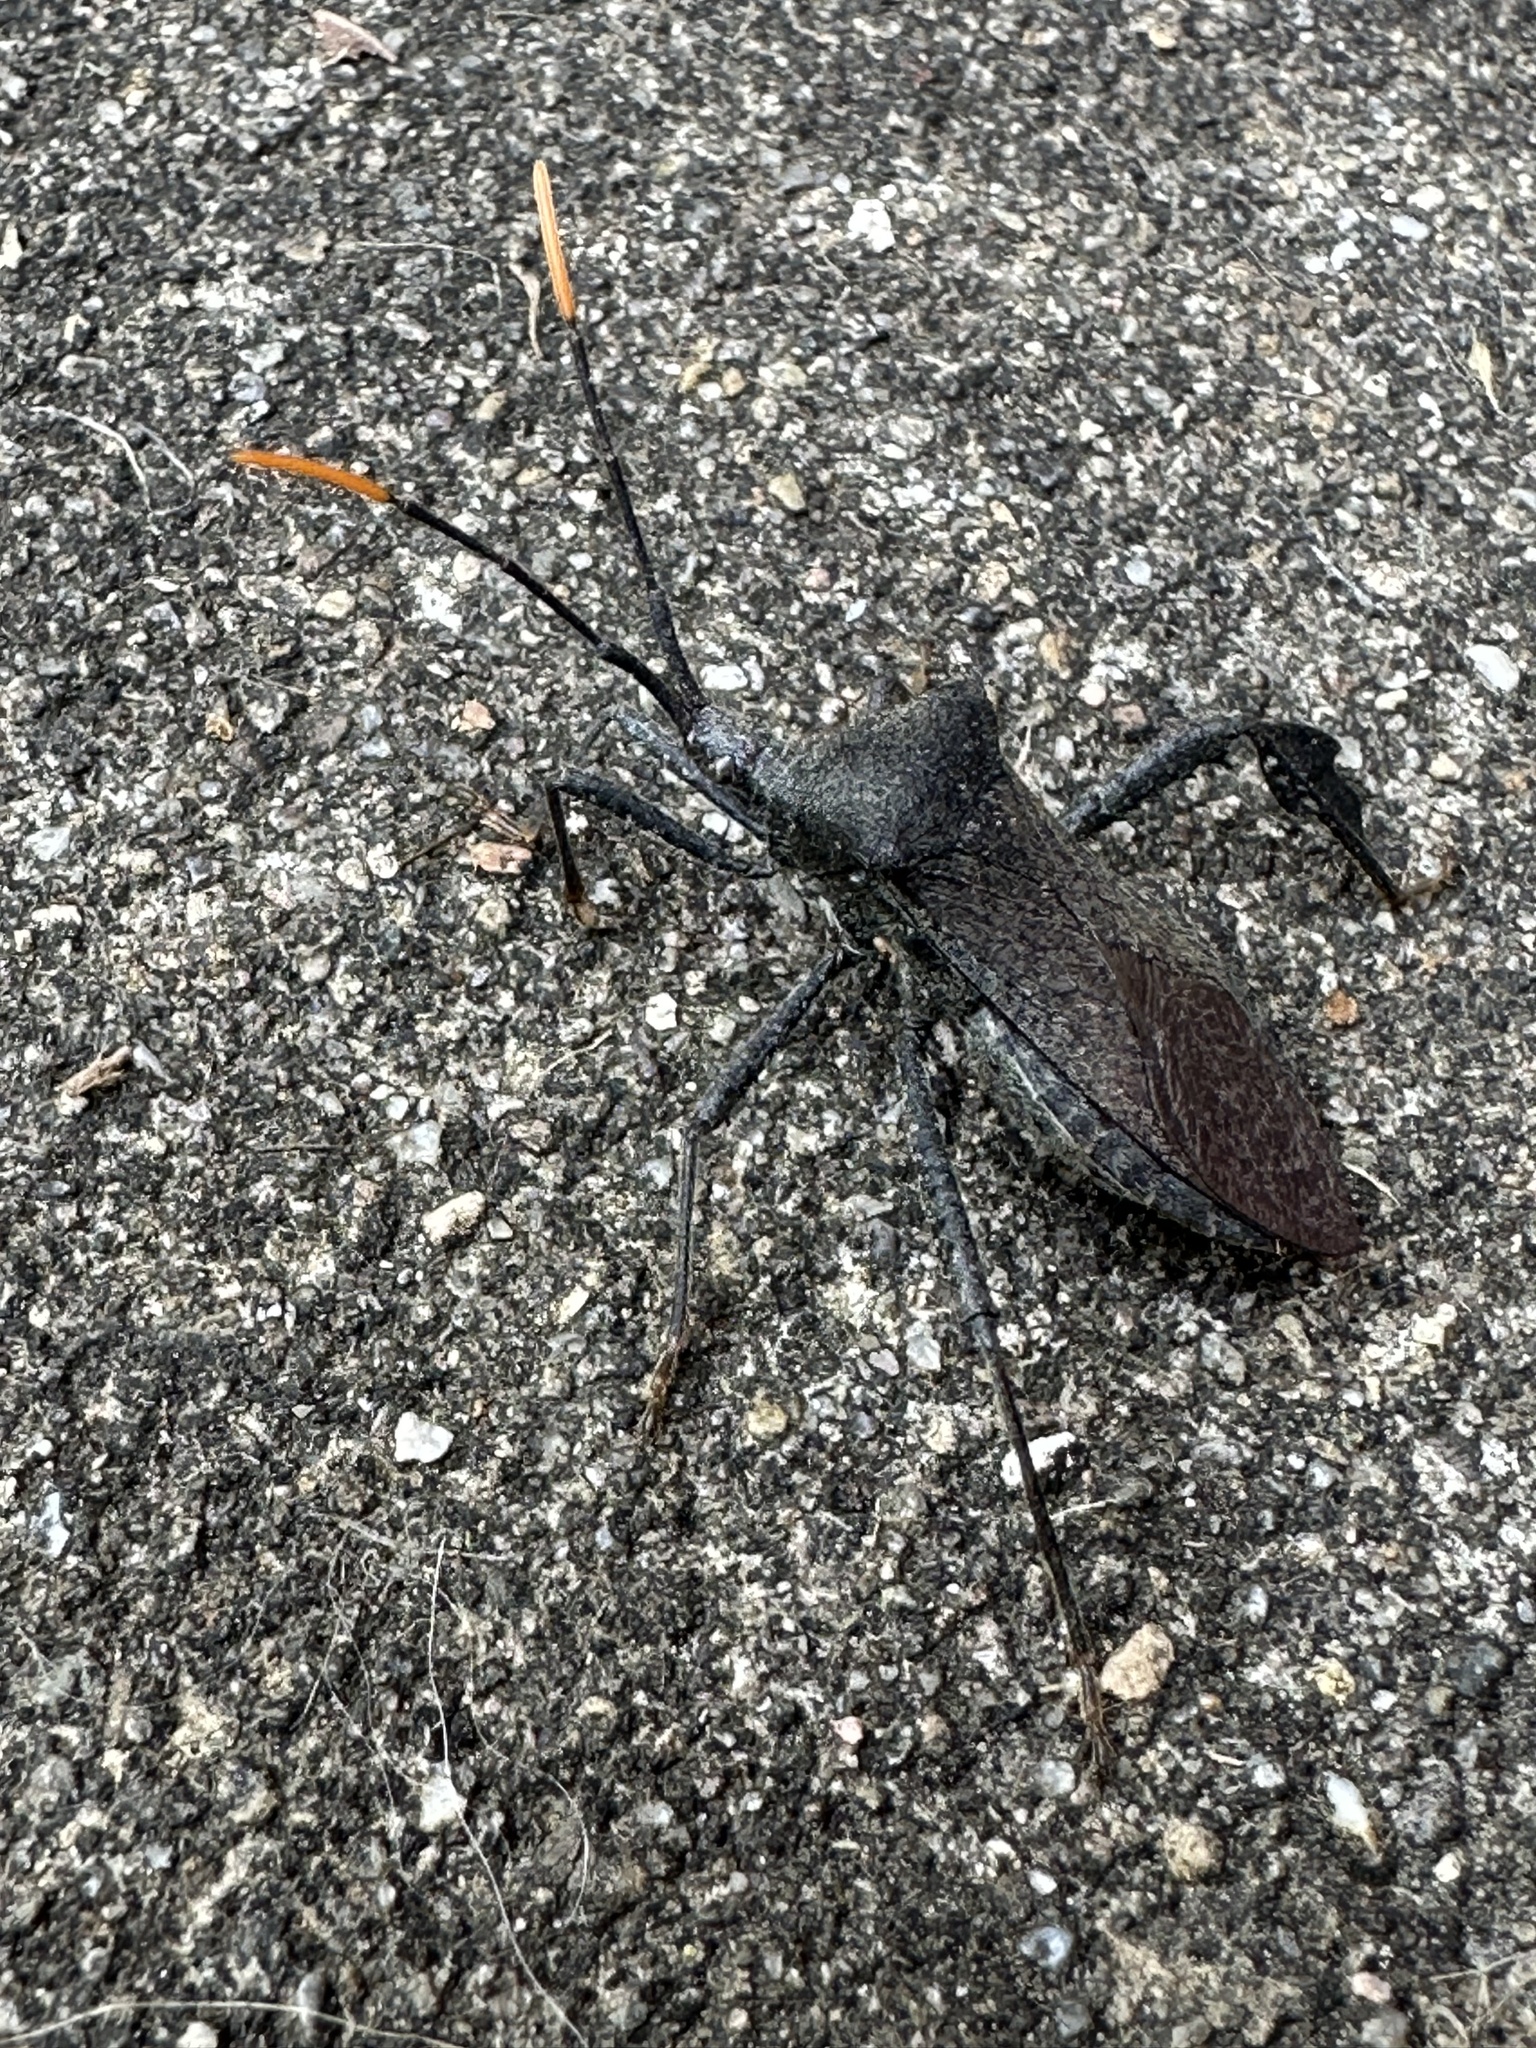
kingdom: Animalia
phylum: Arthropoda
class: Insecta
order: Hemiptera
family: Coreidae
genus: Acanthocephala
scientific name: Acanthocephala terminalis
